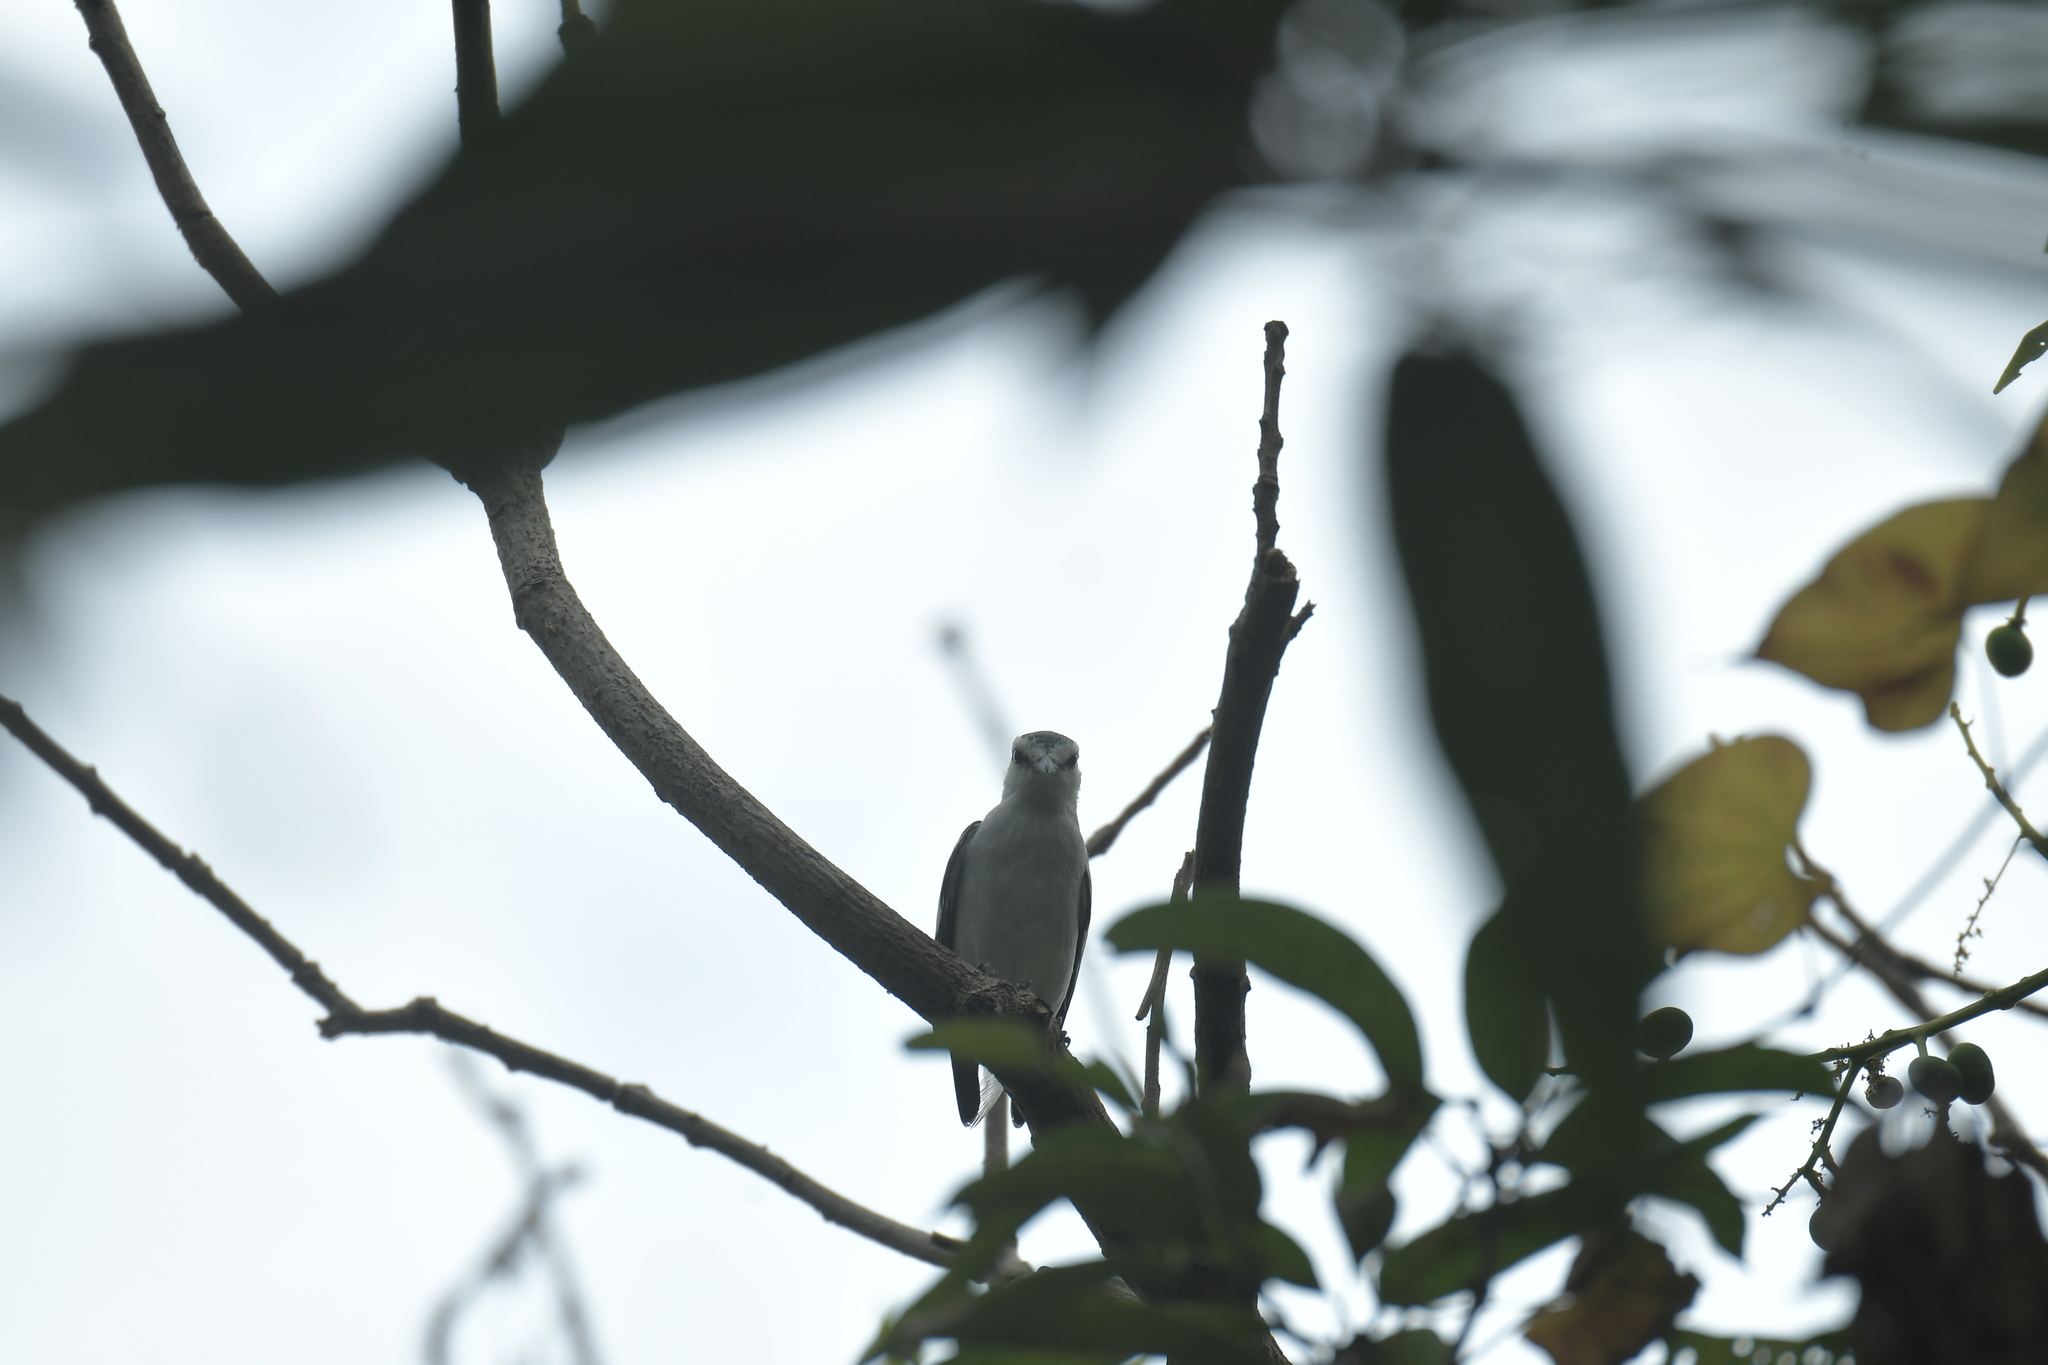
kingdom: Animalia
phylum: Chordata
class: Aves
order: Passeriformes
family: Campephagidae
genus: Lalage
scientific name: Lalage nigra
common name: Pied triller
